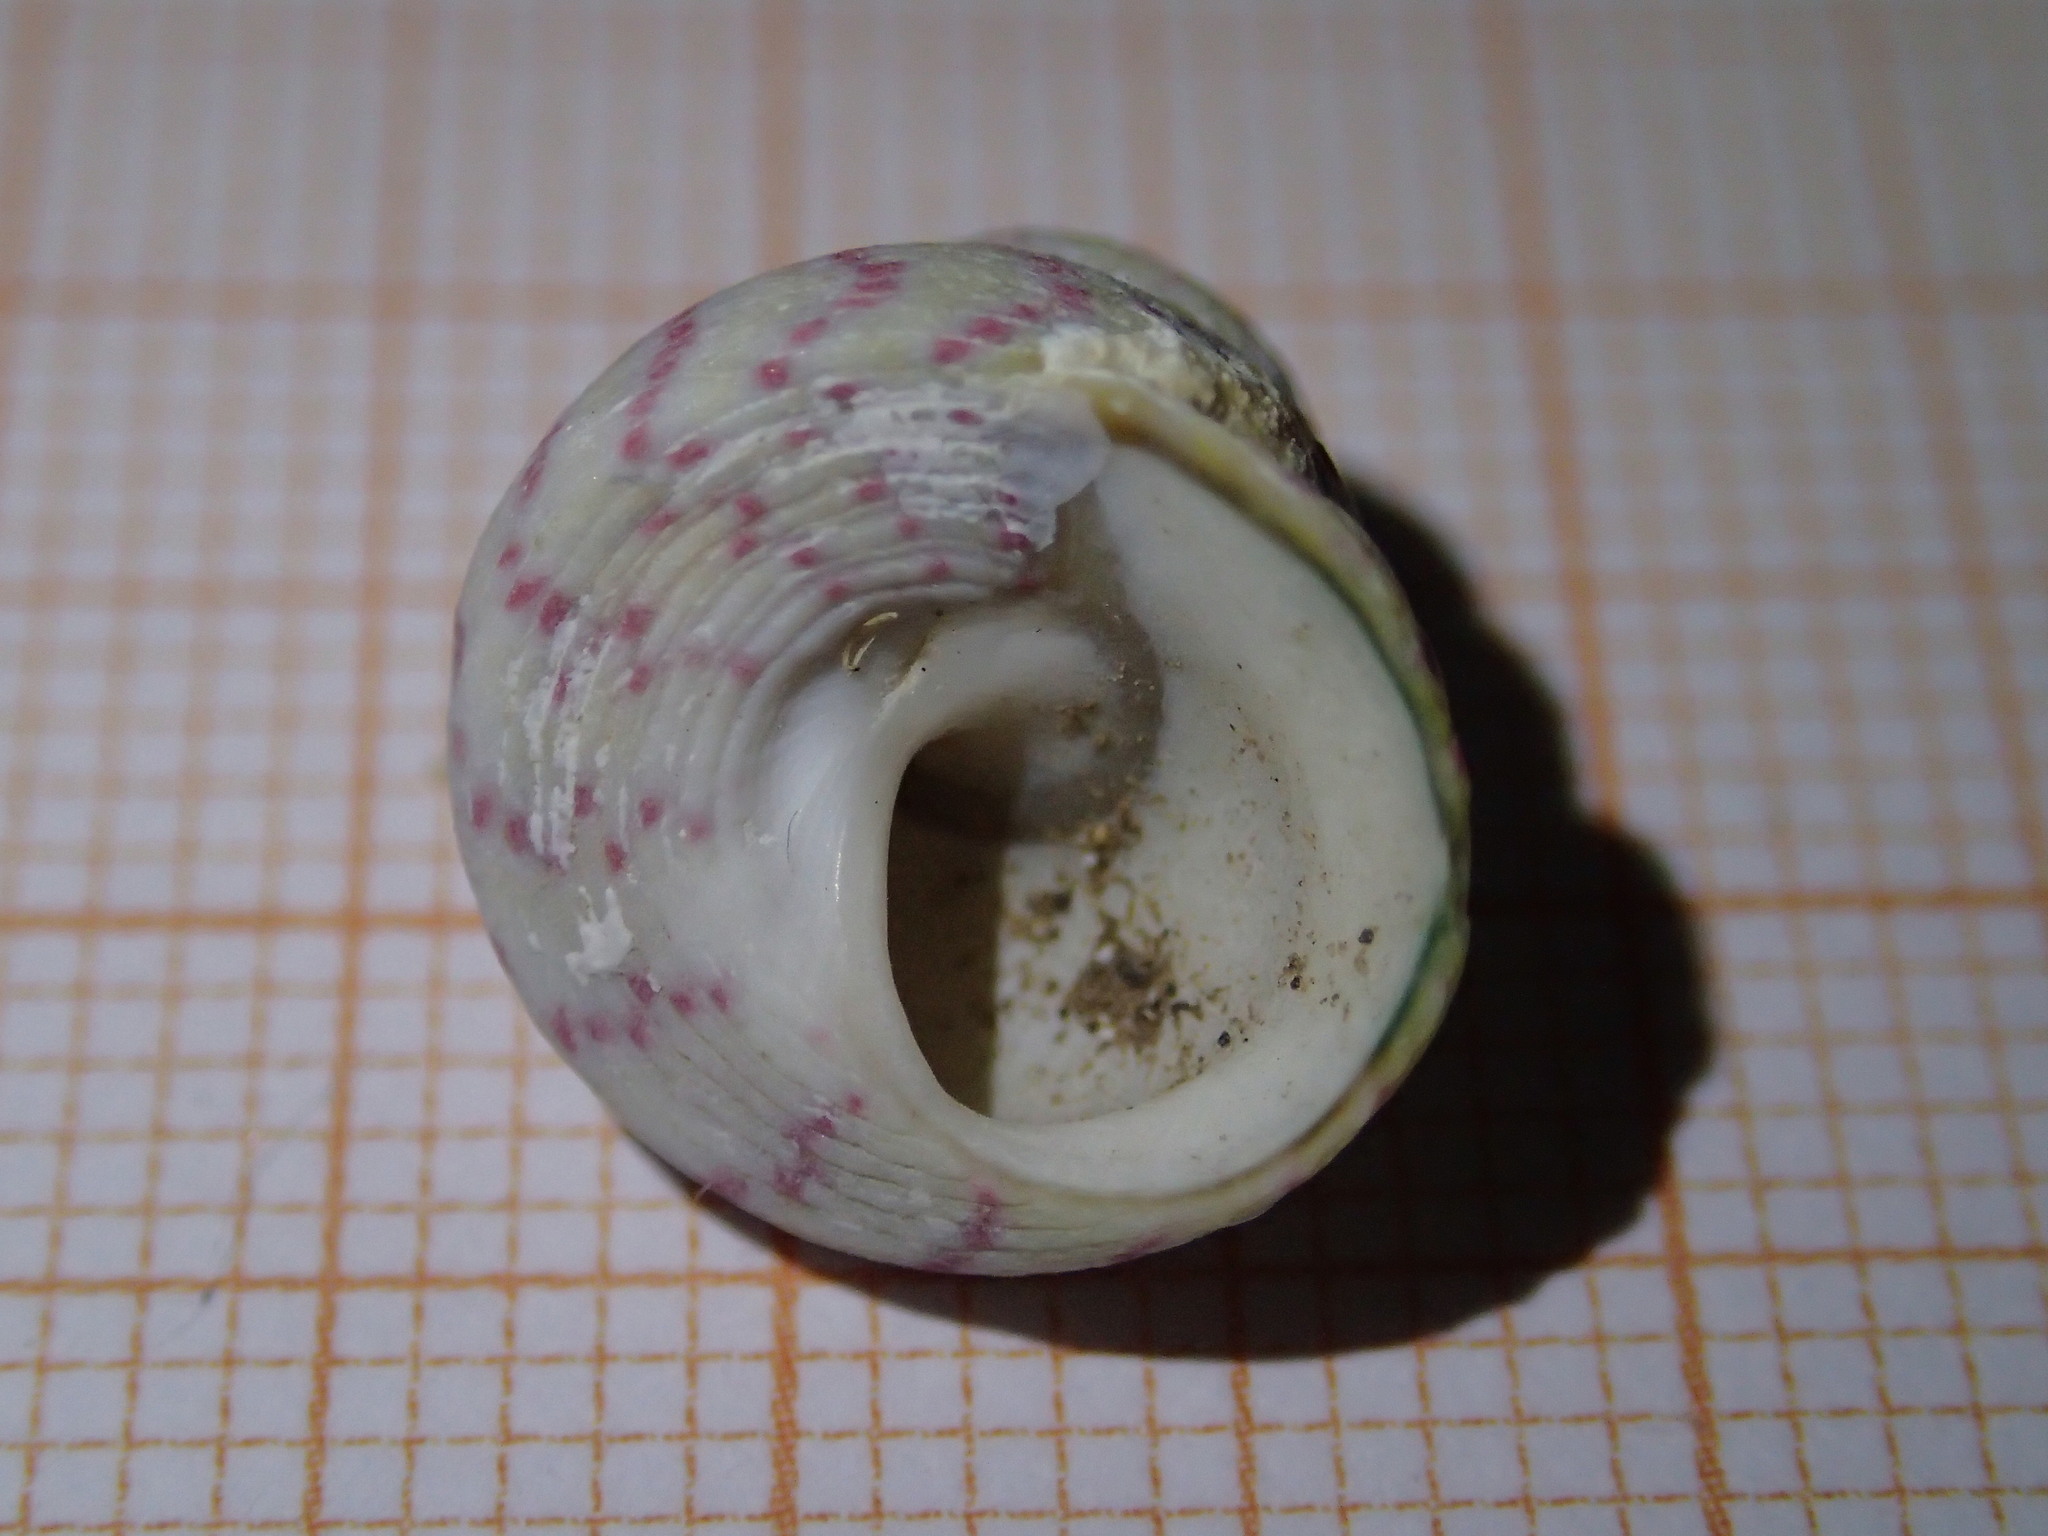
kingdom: Animalia
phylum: Mollusca
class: Gastropoda
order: Trochida
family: Trochidae
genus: Steromphala
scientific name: Steromphala divaricata
